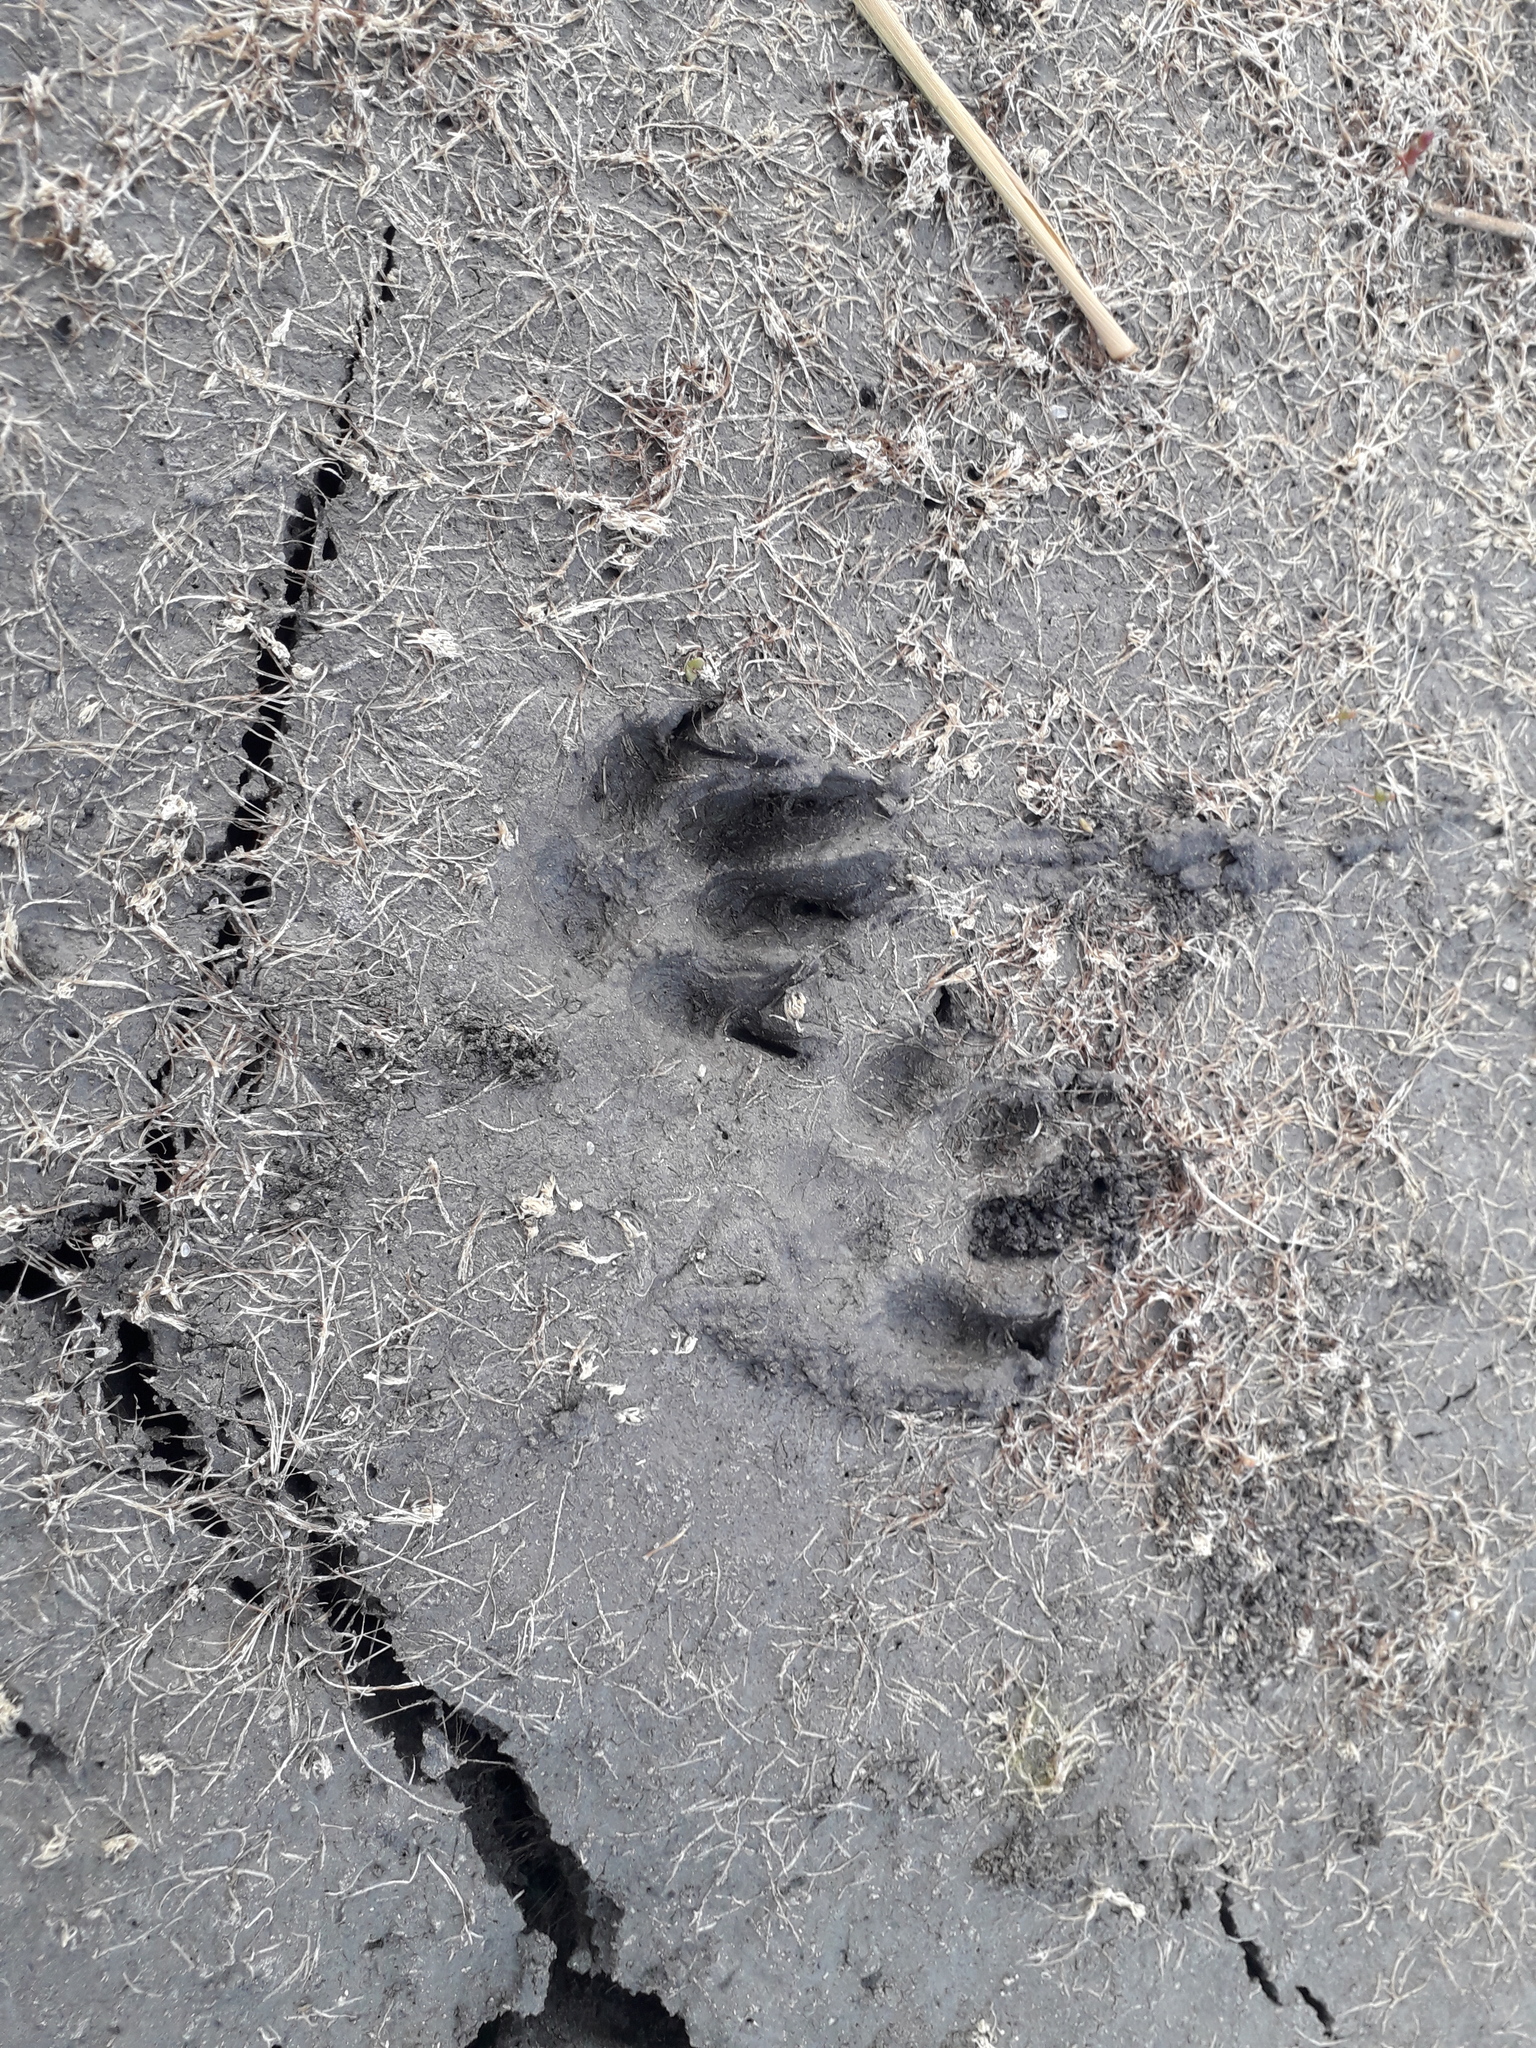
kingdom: Animalia
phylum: Chordata
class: Mammalia
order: Carnivora
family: Canidae
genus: Nyctereutes
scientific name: Nyctereutes procyonoides
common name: Raccoon dog
